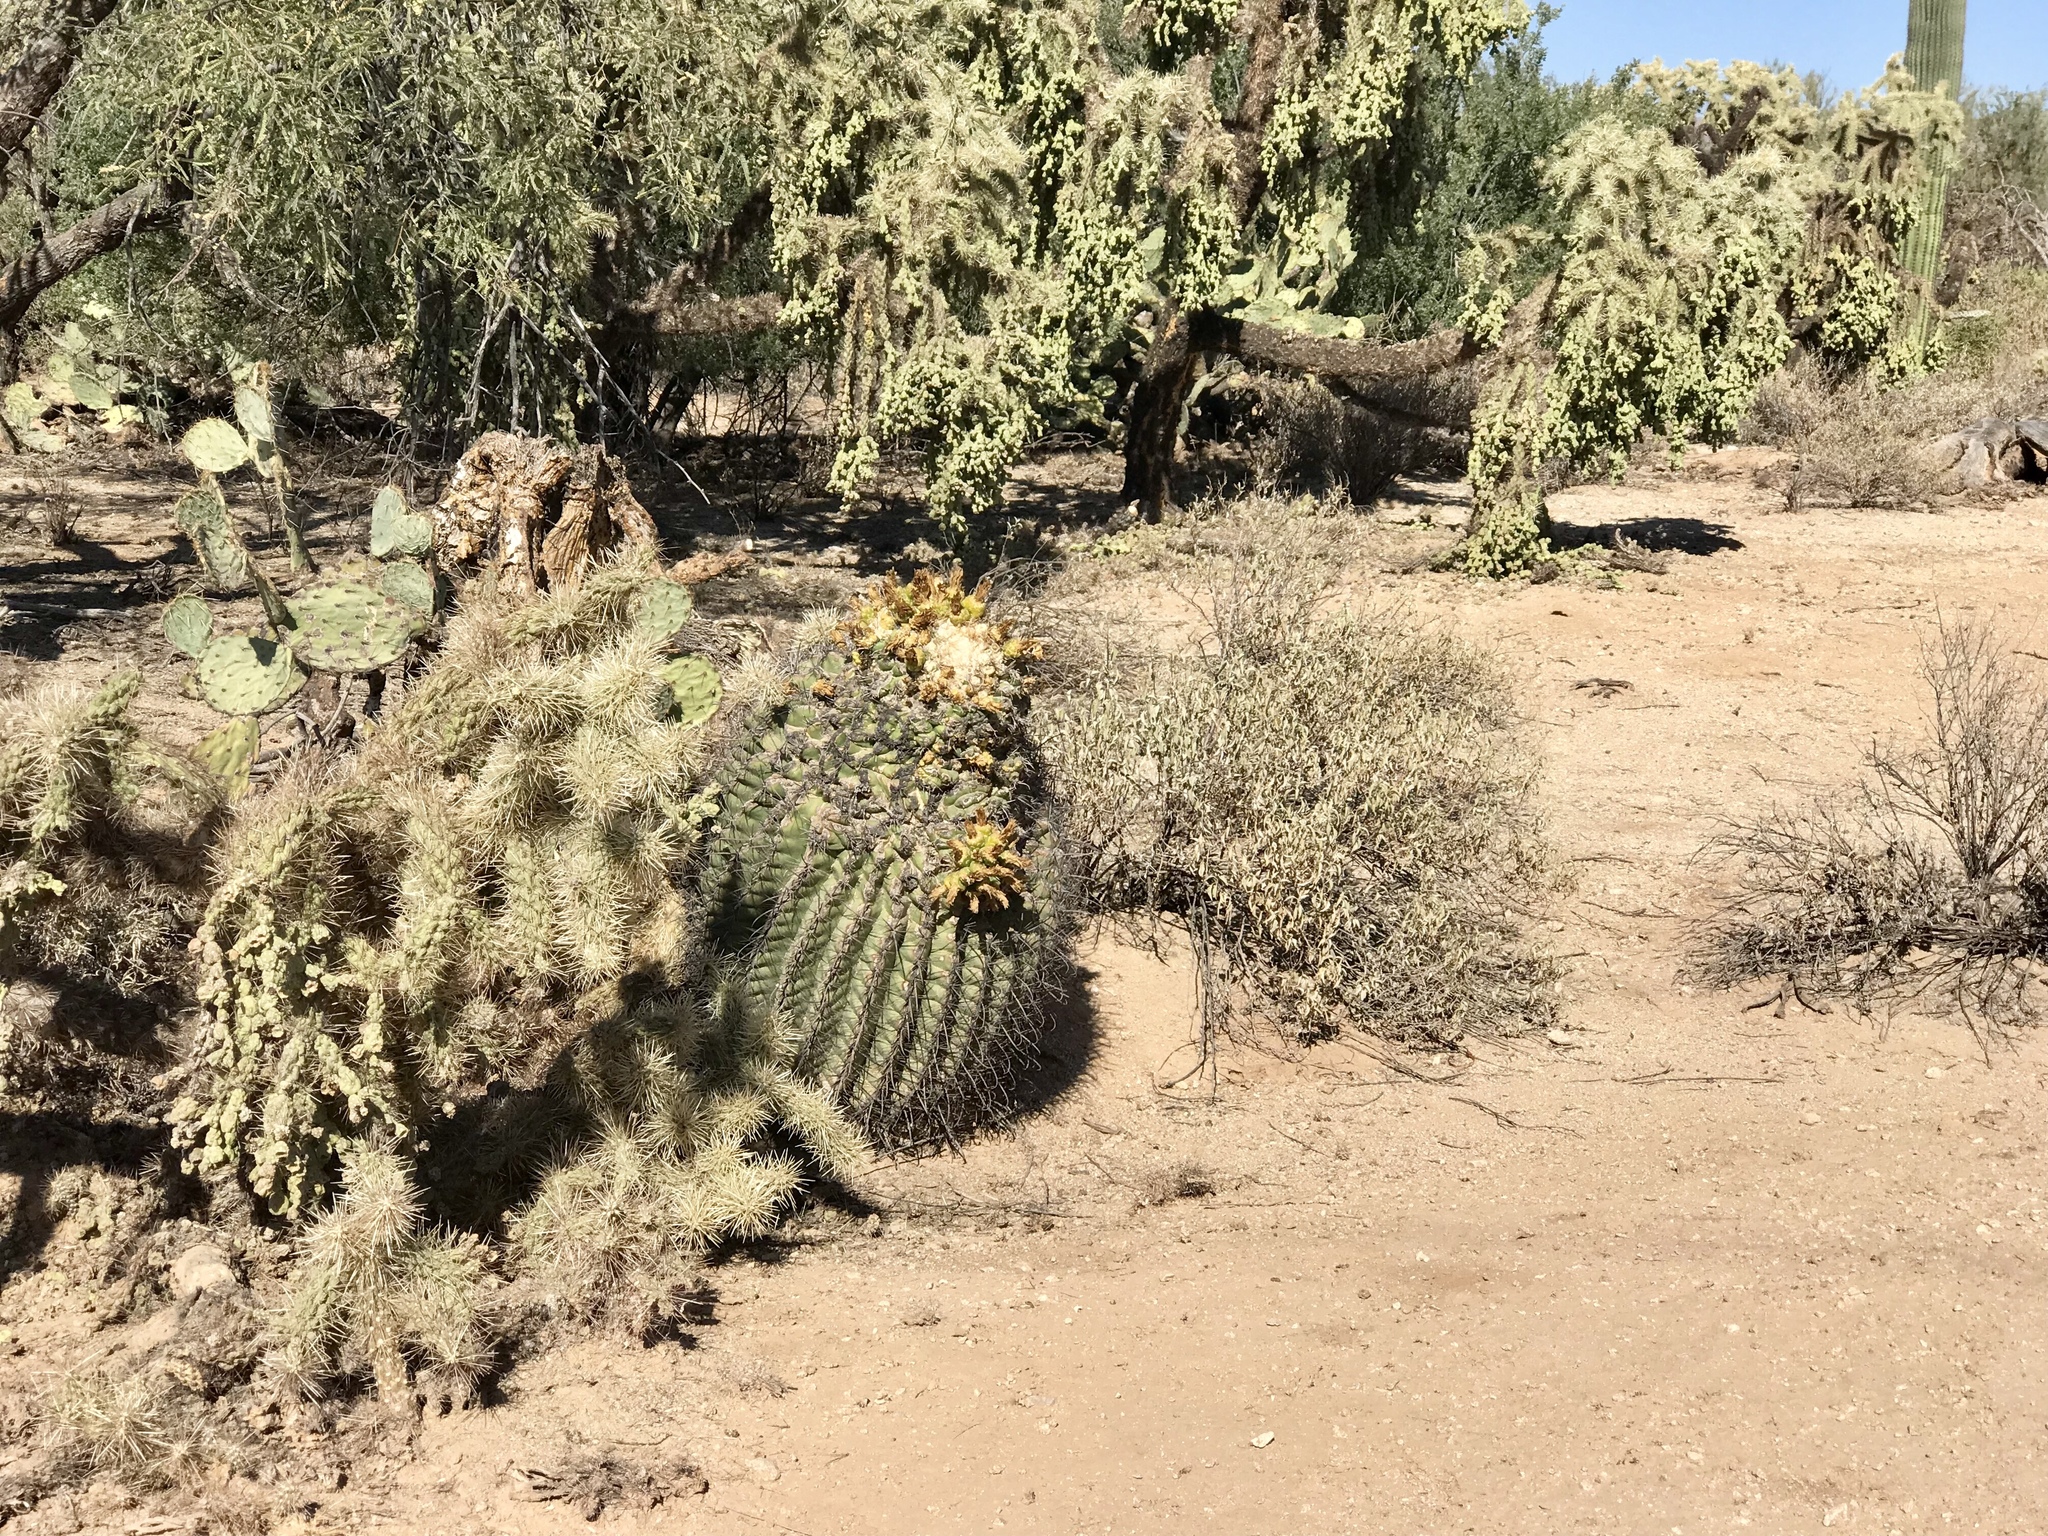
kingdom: Plantae
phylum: Tracheophyta
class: Magnoliopsida
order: Caryophyllales
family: Cactaceae
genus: Ferocactus
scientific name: Ferocactus wislizeni
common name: Candy barrel cactus
